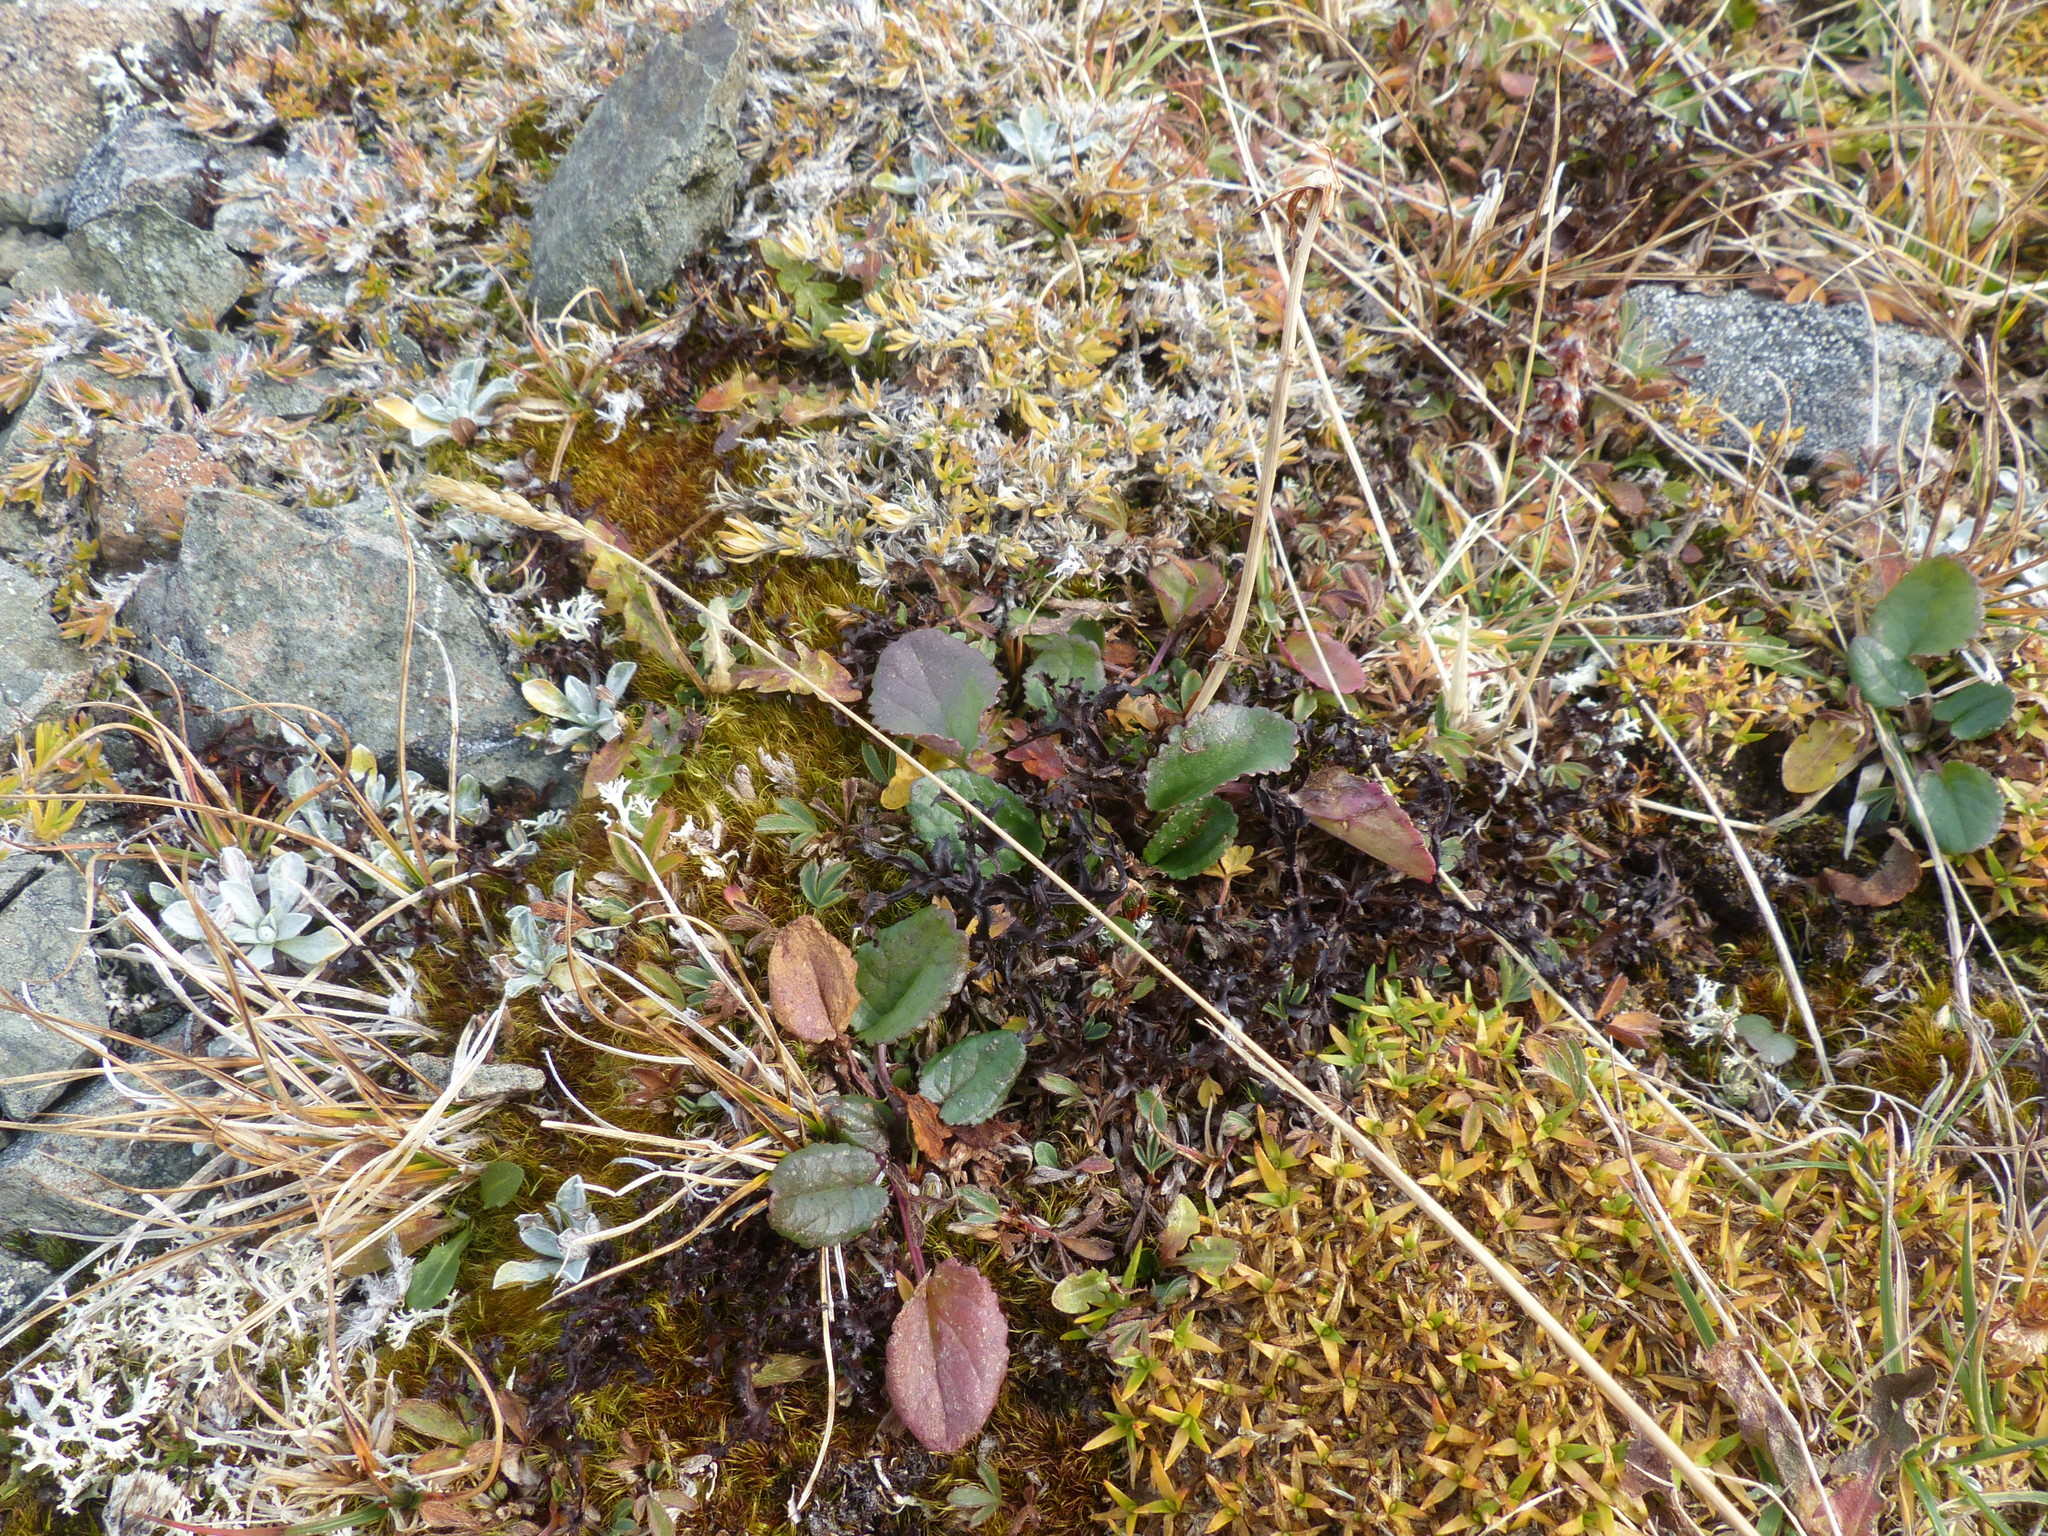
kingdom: Plantae
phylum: Tracheophyta
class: Magnoliopsida
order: Asterales
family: Asteraceae
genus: Packera
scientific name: Packera pauciflora
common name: Alpine groundsel
